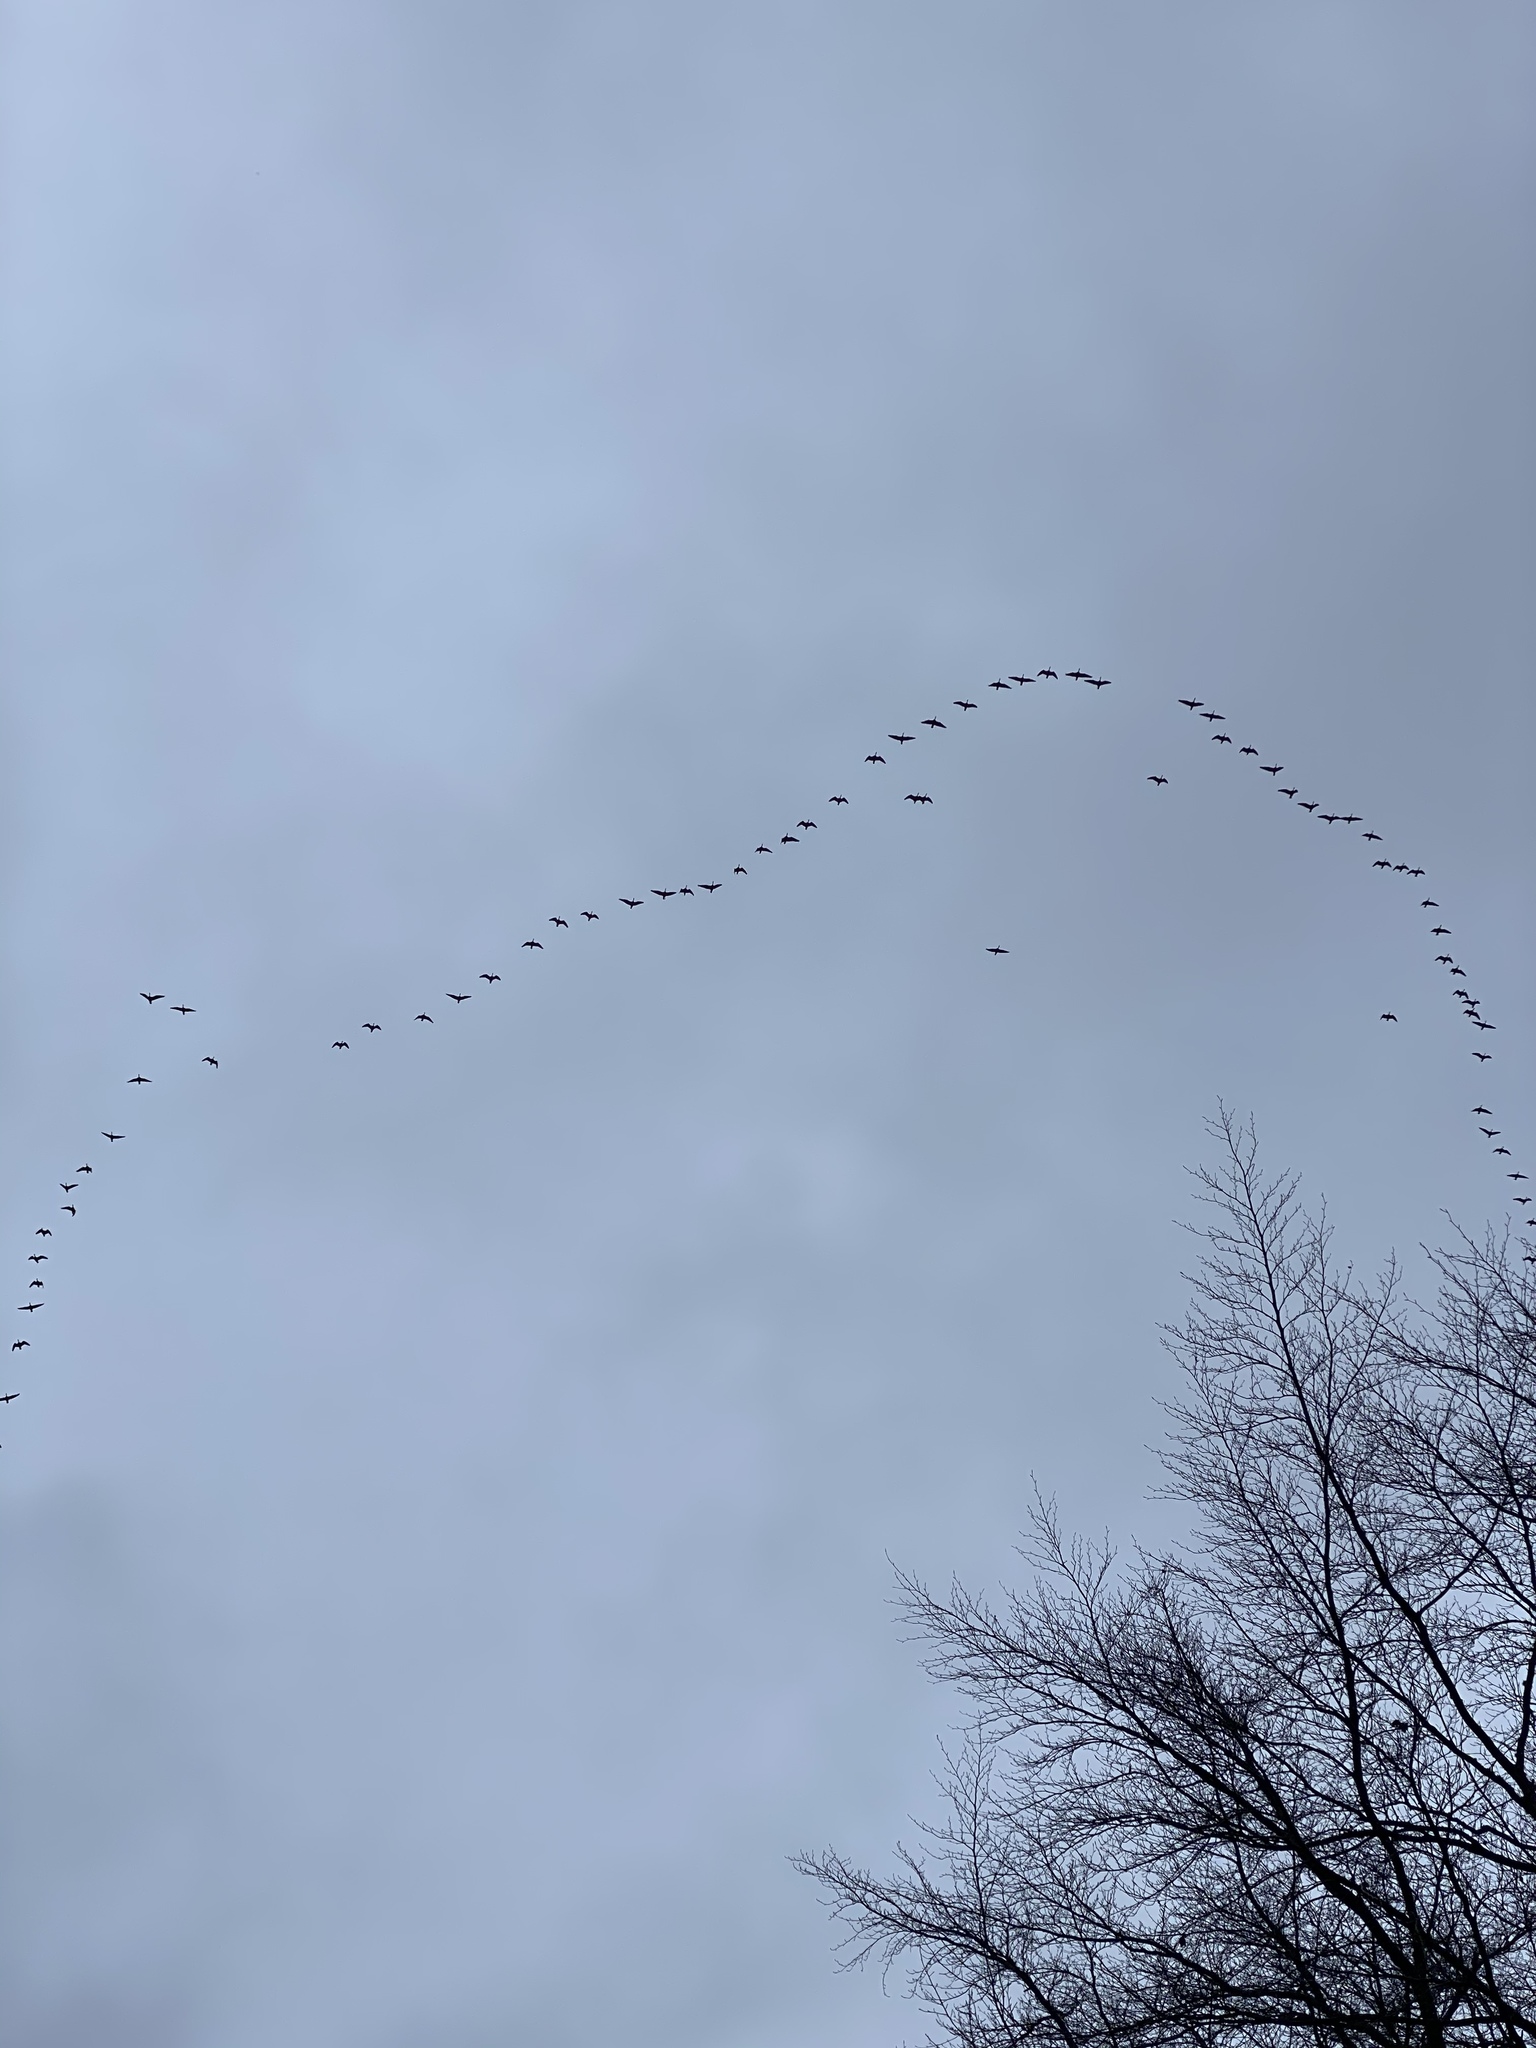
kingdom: Animalia
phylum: Chordata
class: Aves
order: Anseriformes
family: Anatidae
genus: Branta
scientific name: Branta canadensis
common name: Canada goose
